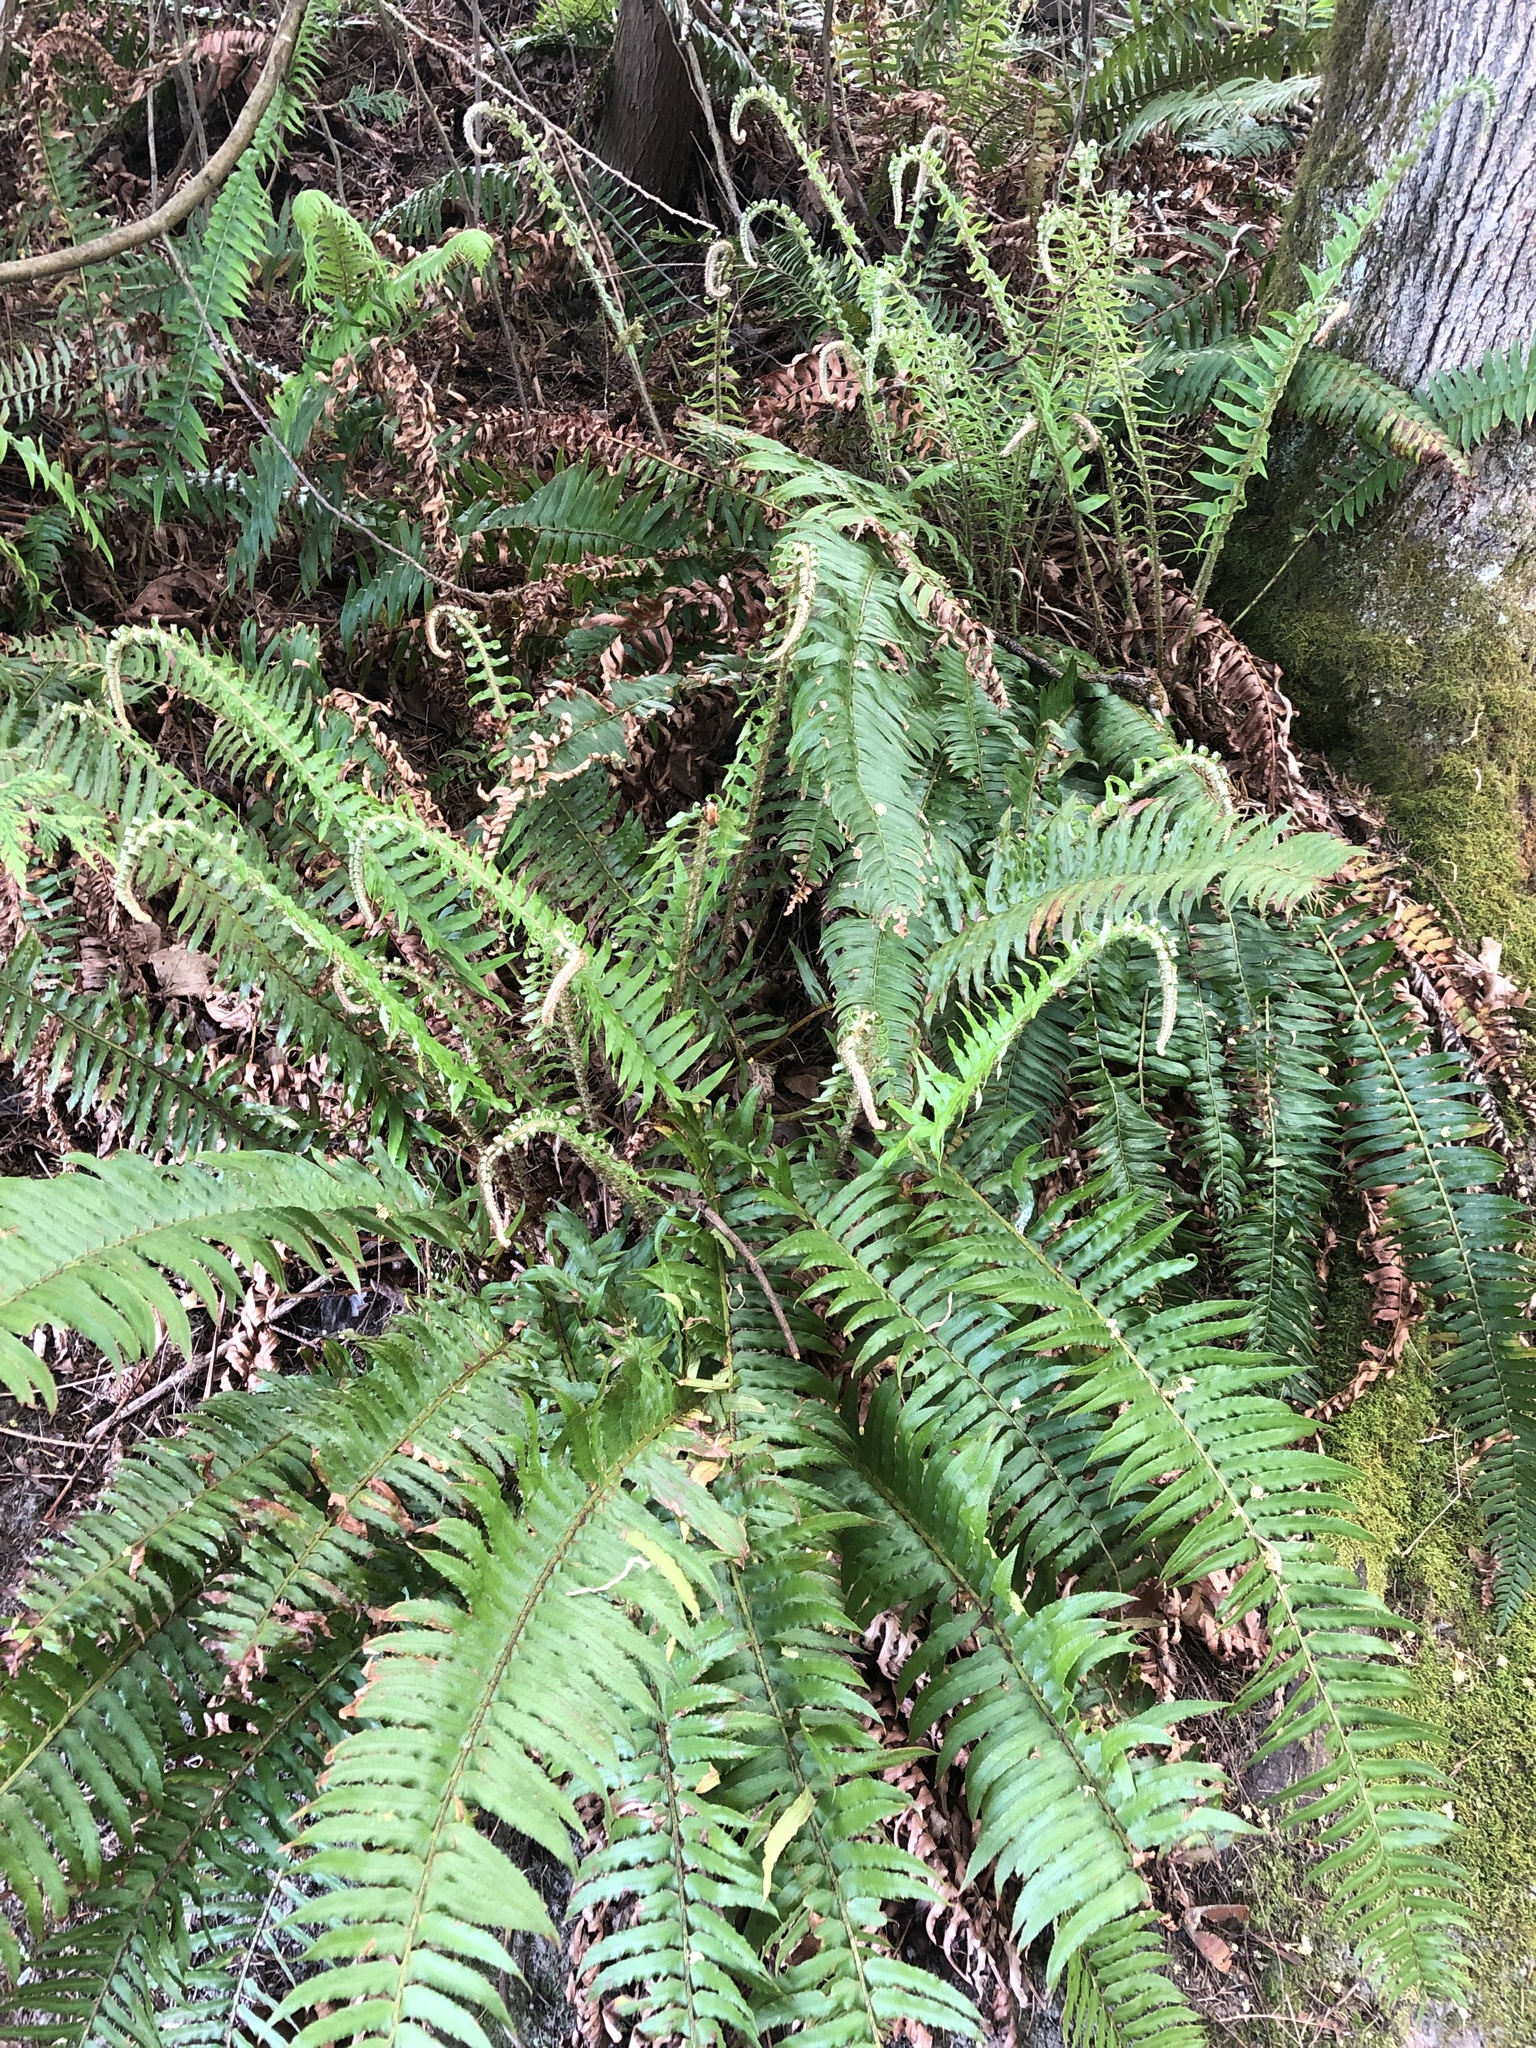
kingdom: Plantae
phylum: Tracheophyta
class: Polypodiopsida
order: Polypodiales
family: Dryopteridaceae
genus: Polystichum
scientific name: Polystichum munitum
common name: Western sword-fern
